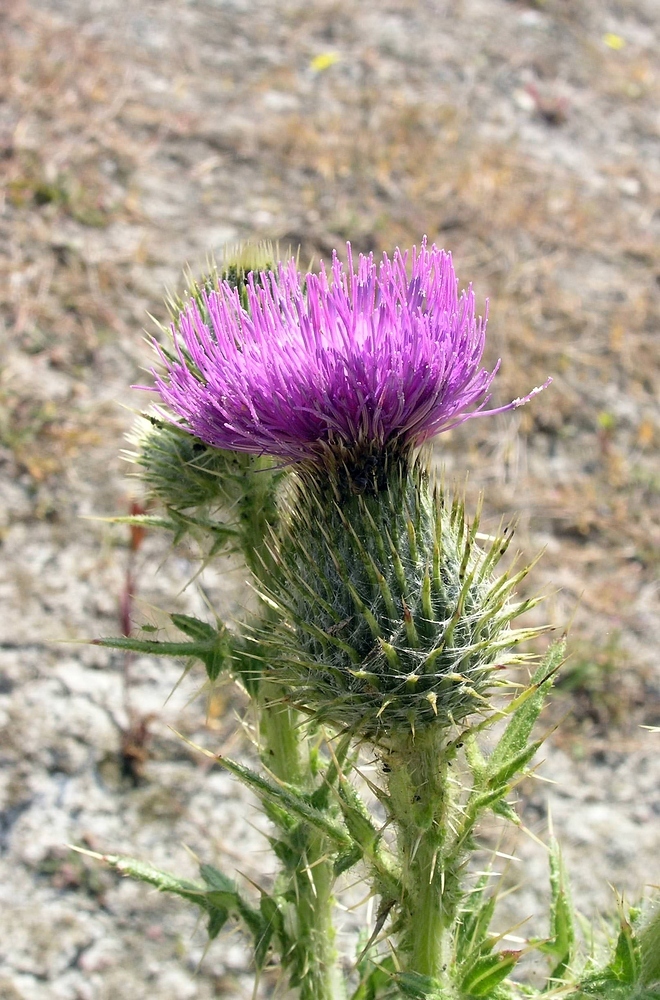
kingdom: Plantae
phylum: Tracheophyta
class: Magnoliopsida
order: Asterales
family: Asteraceae
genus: Cirsium
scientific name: Cirsium vulgare
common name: Bull thistle
